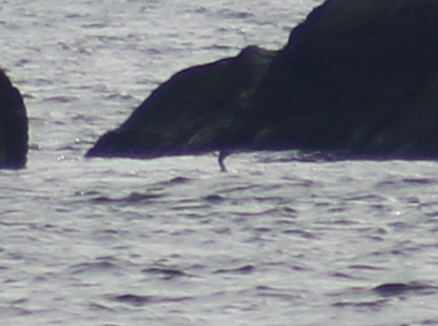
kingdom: Animalia
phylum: Chordata
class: Aves
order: Suliformes
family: Phalacrocoracidae
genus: Phalacrocorax
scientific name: Phalacrocorax auritus
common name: Double-crested cormorant
